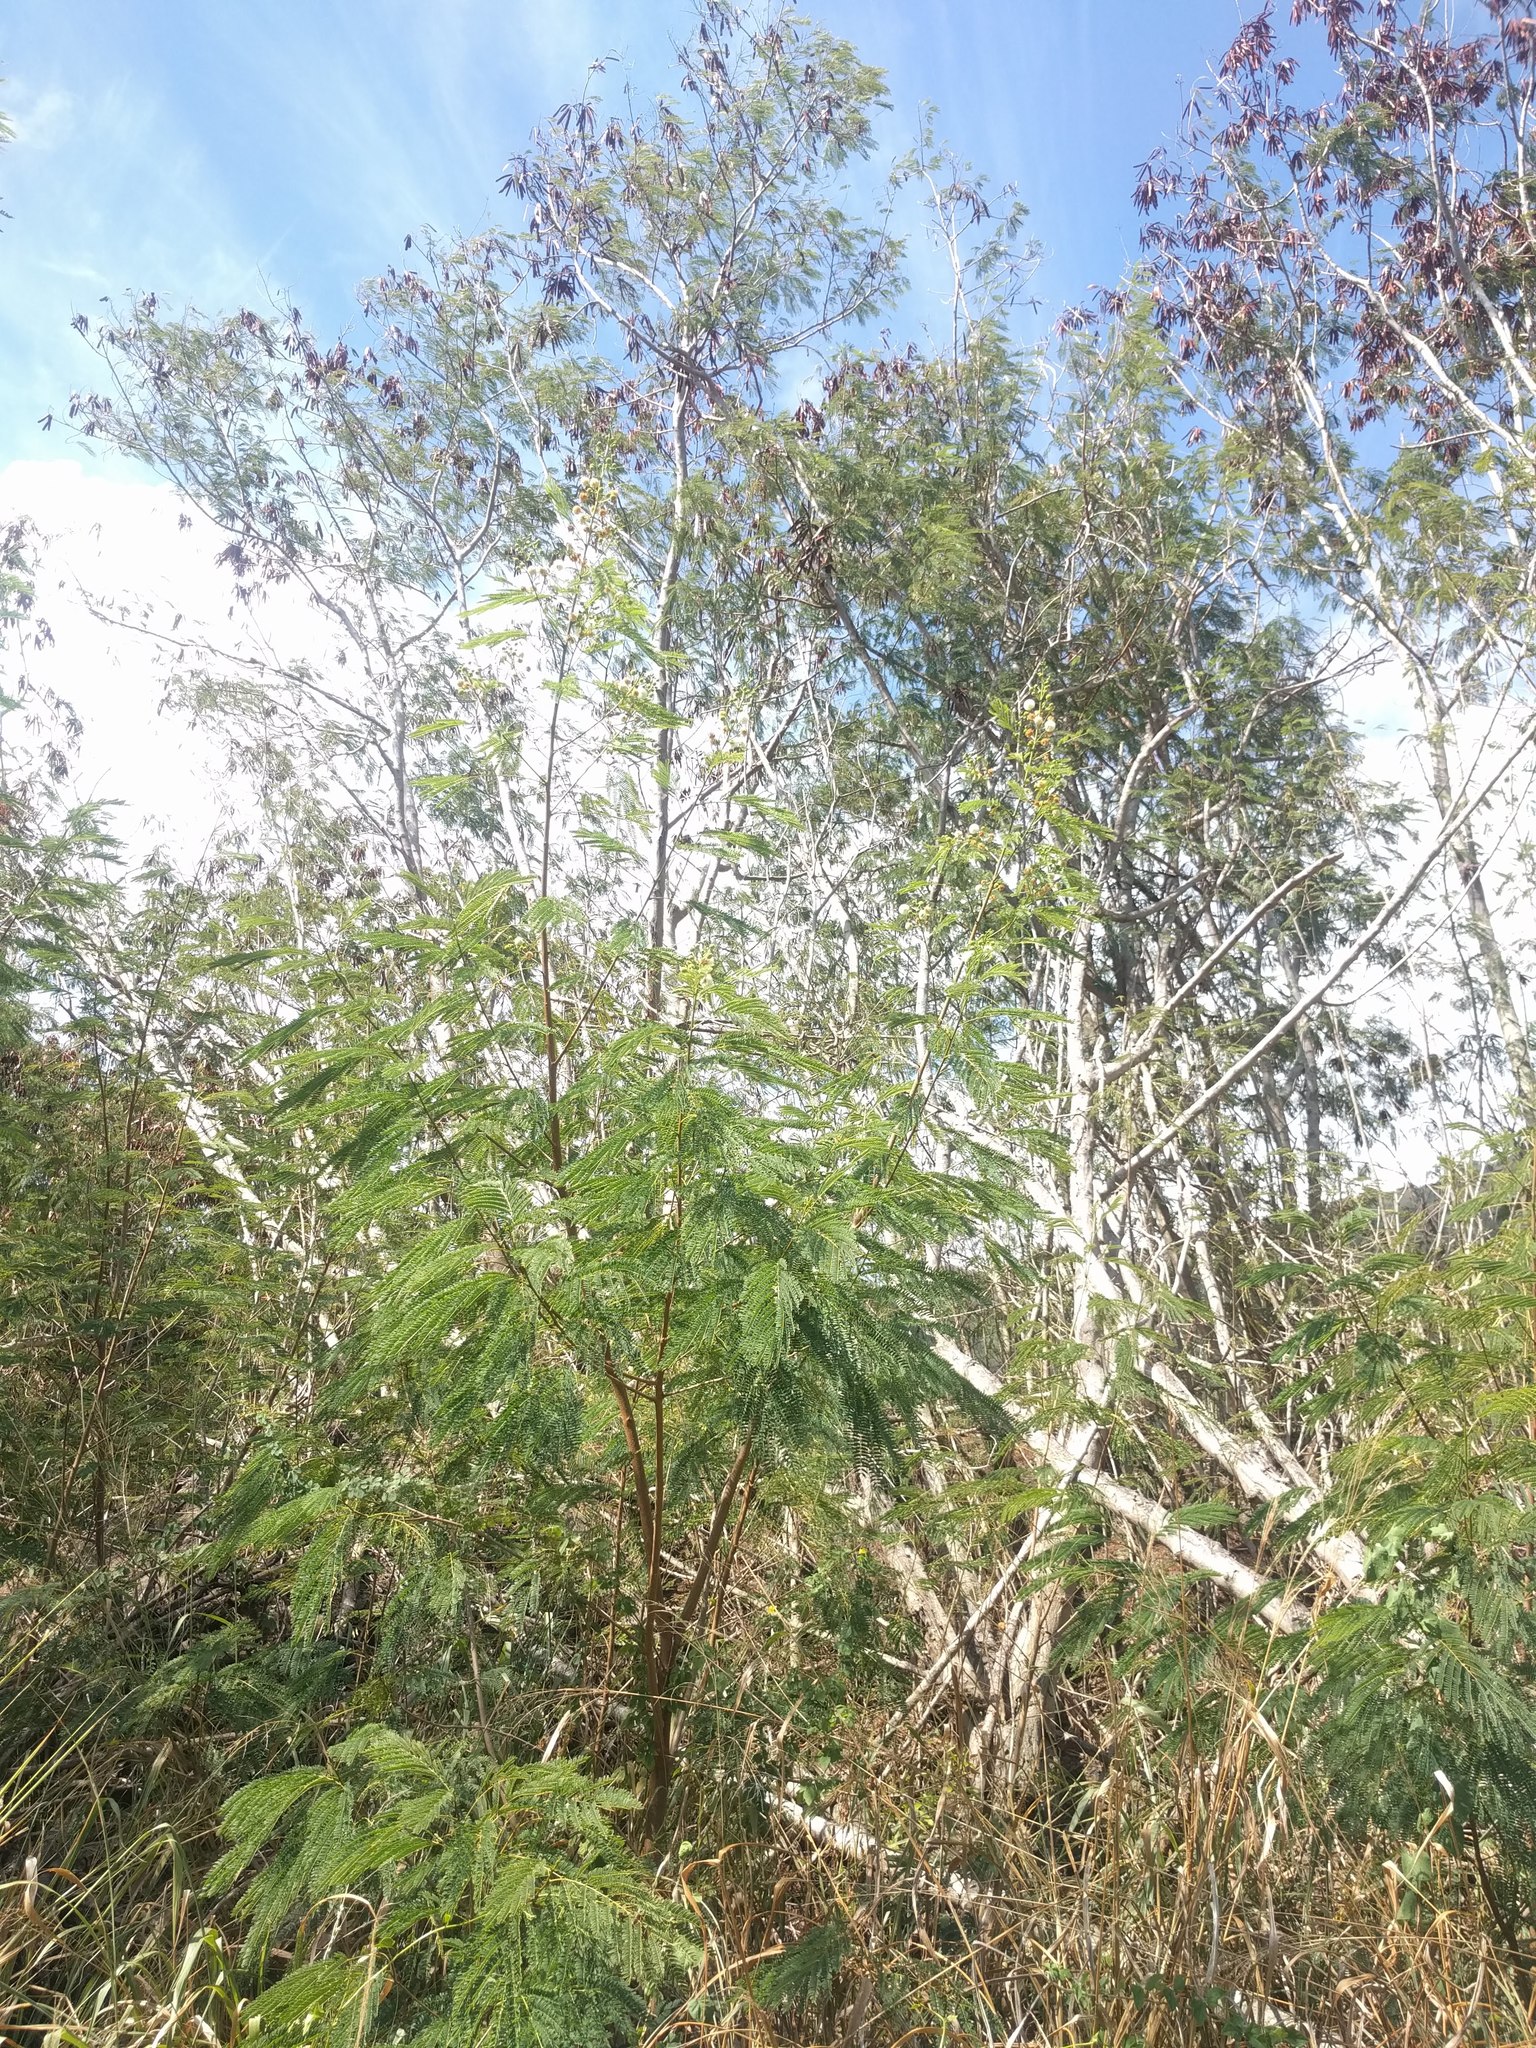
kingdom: Plantae
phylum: Tracheophyta
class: Magnoliopsida
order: Fabales
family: Fabaceae
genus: Leucaena
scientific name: Leucaena leucocephala
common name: White leadtree
